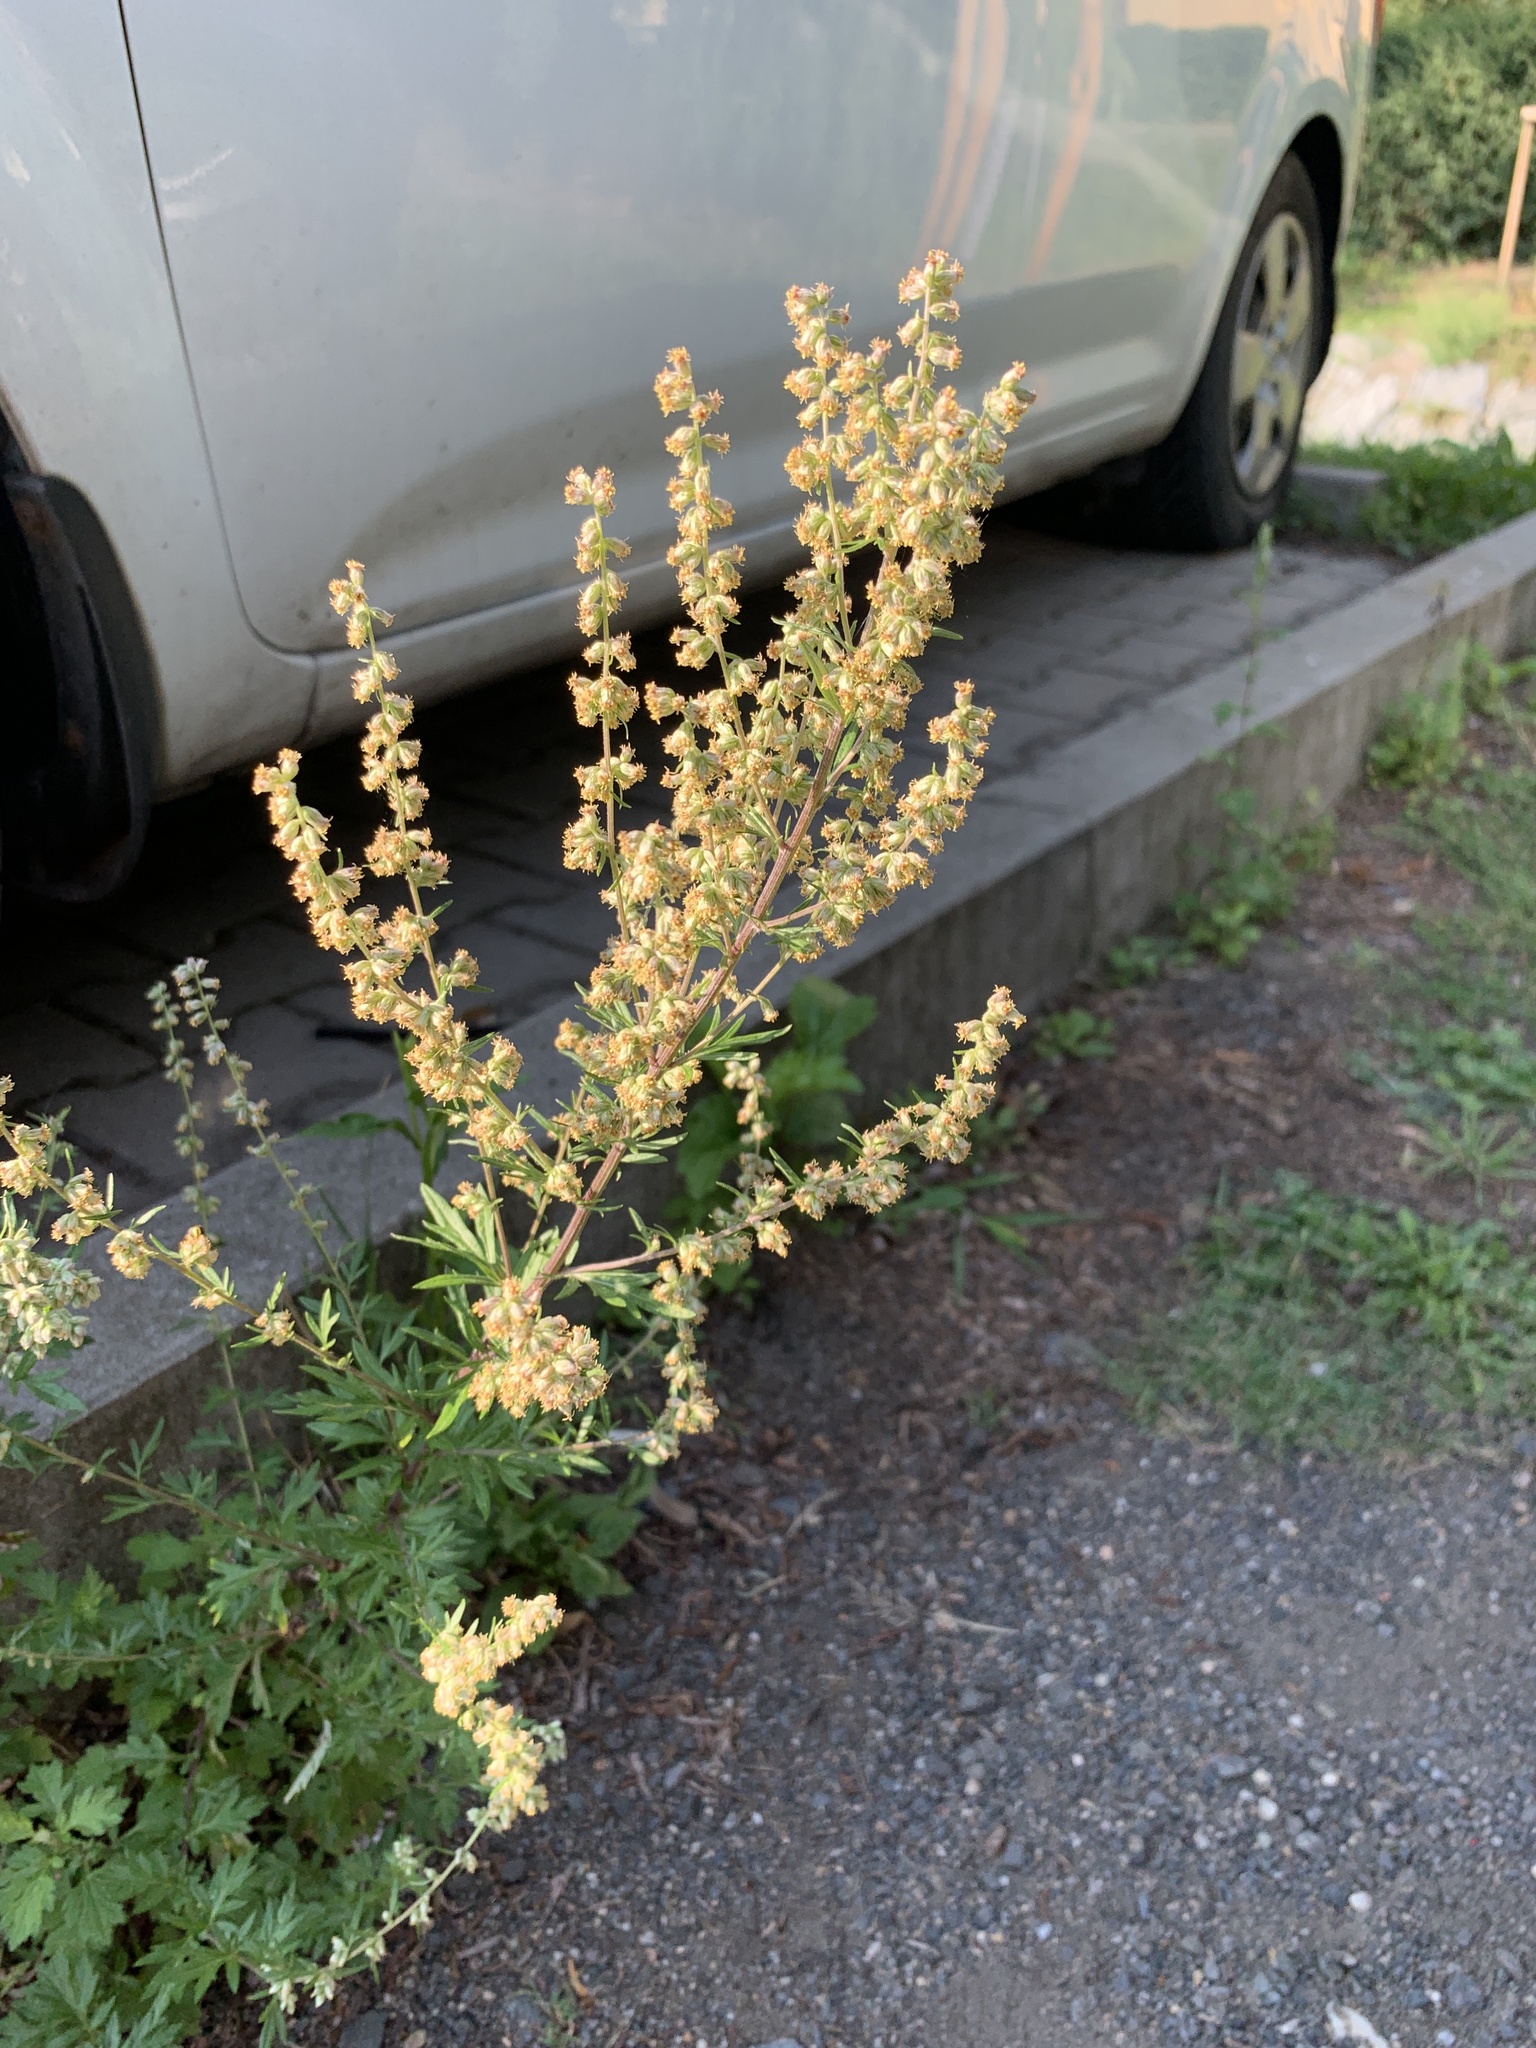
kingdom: Plantae
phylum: Tracheophyta
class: Magnoliopsida
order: Asterales
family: Asteraceae
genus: Artemisia
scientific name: Artemisia vulgaris
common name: Mugwort
